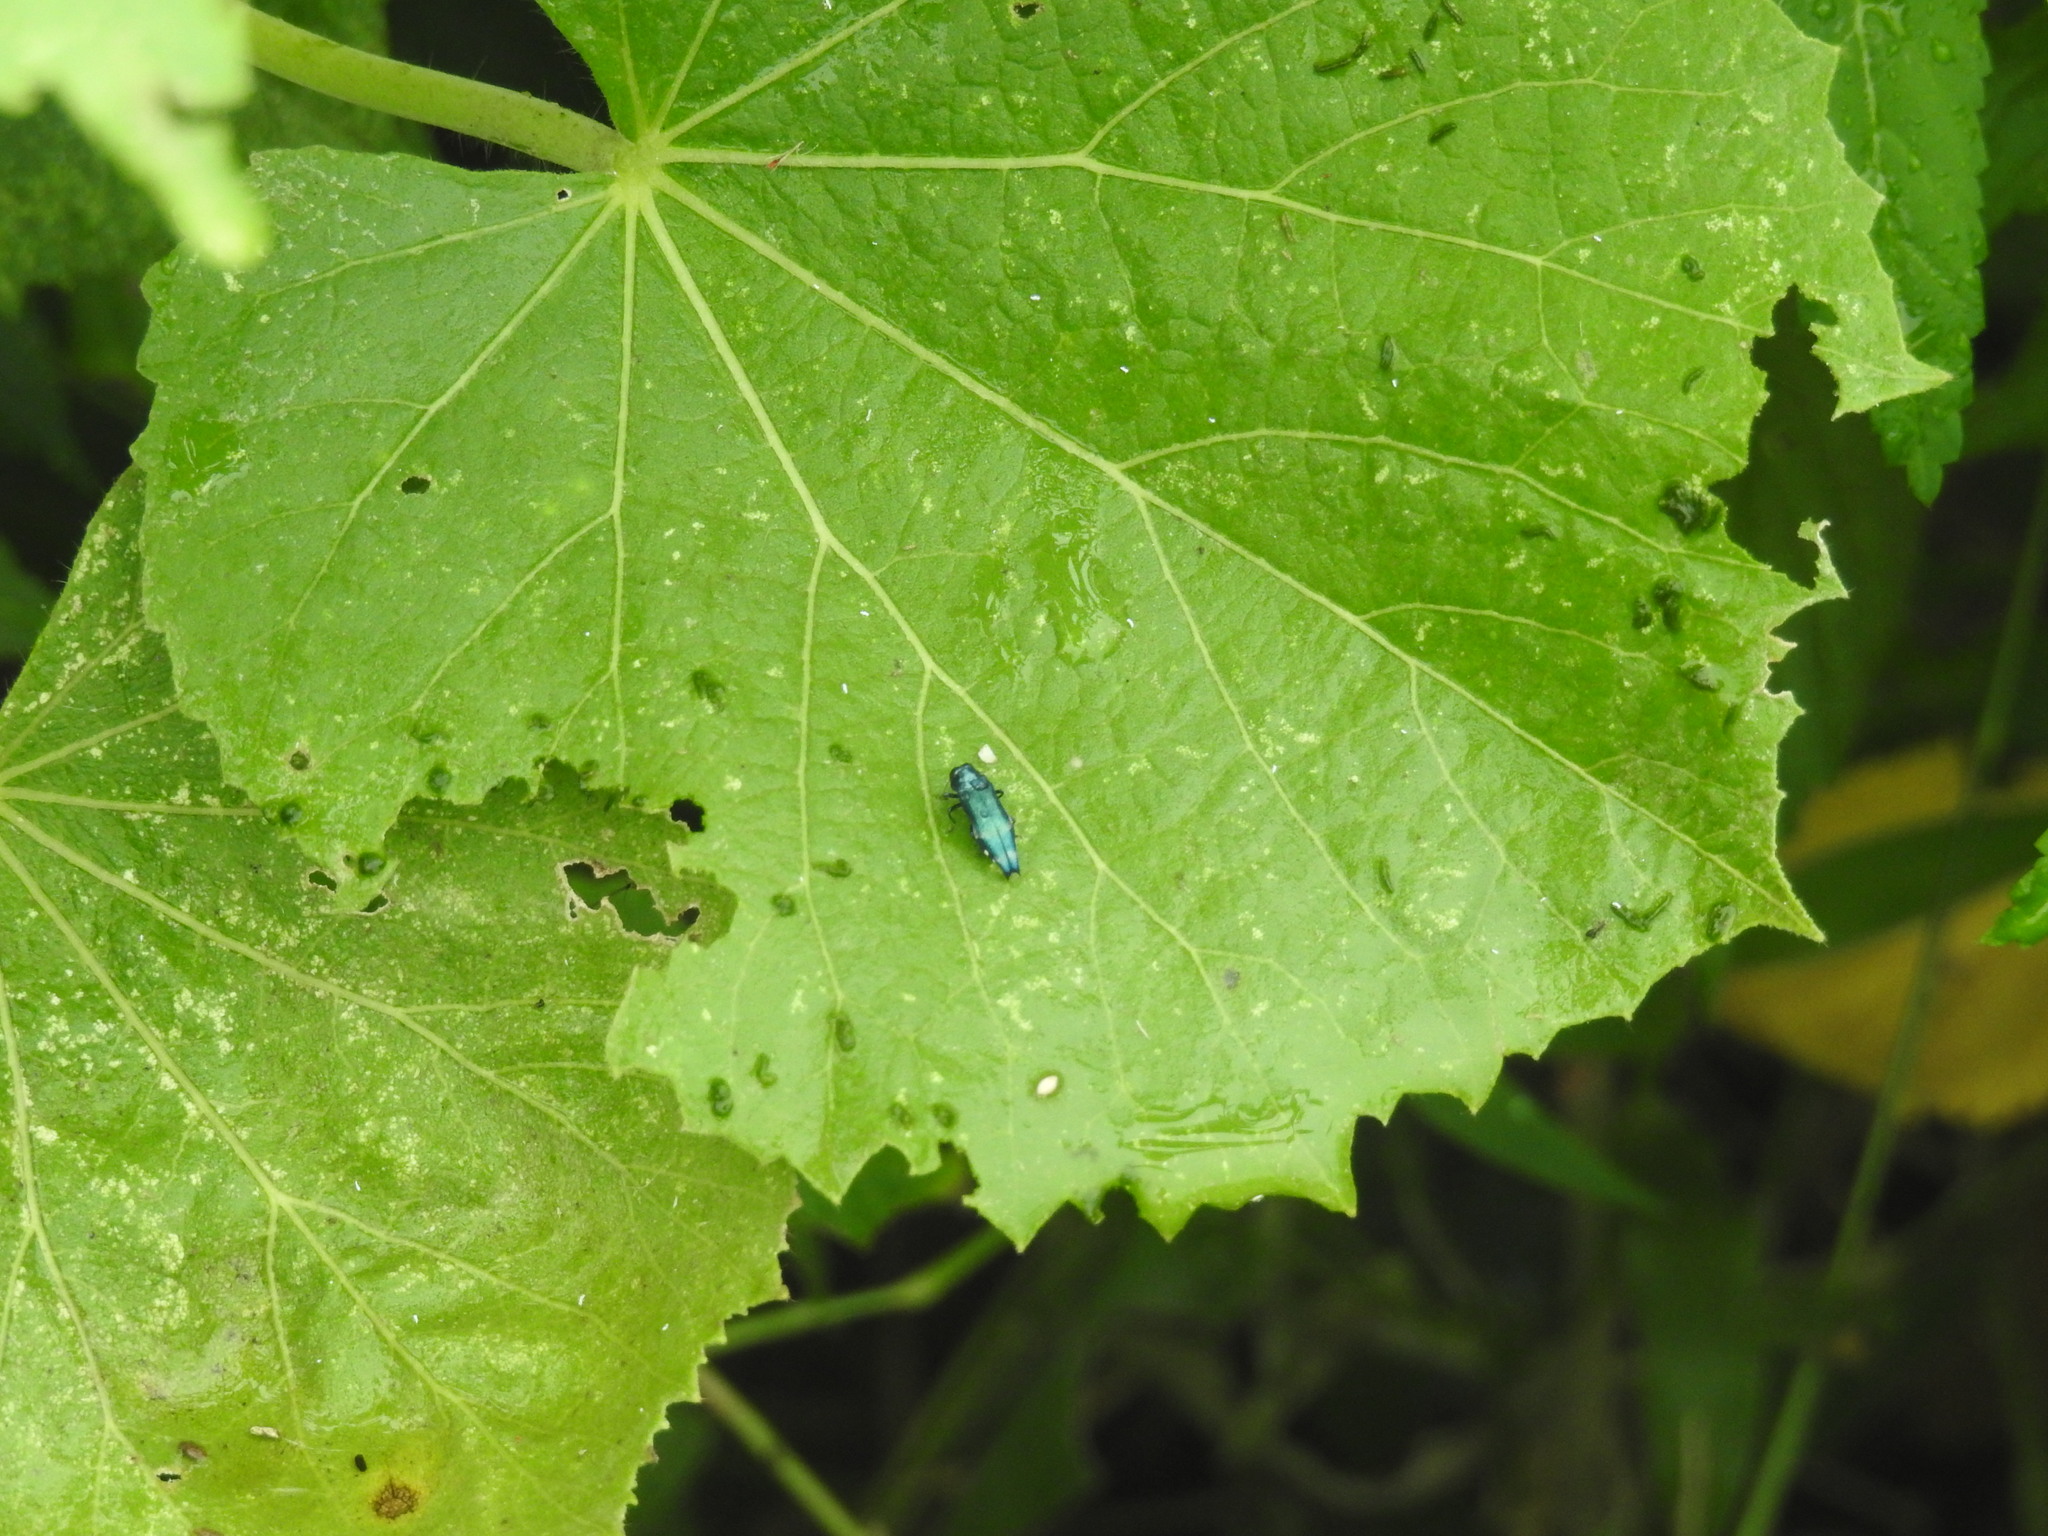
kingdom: Animalia
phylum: Arthropoda
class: Insecta
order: Coleoptera
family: Buprestidae
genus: Agrilus
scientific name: Agrilus acutus
